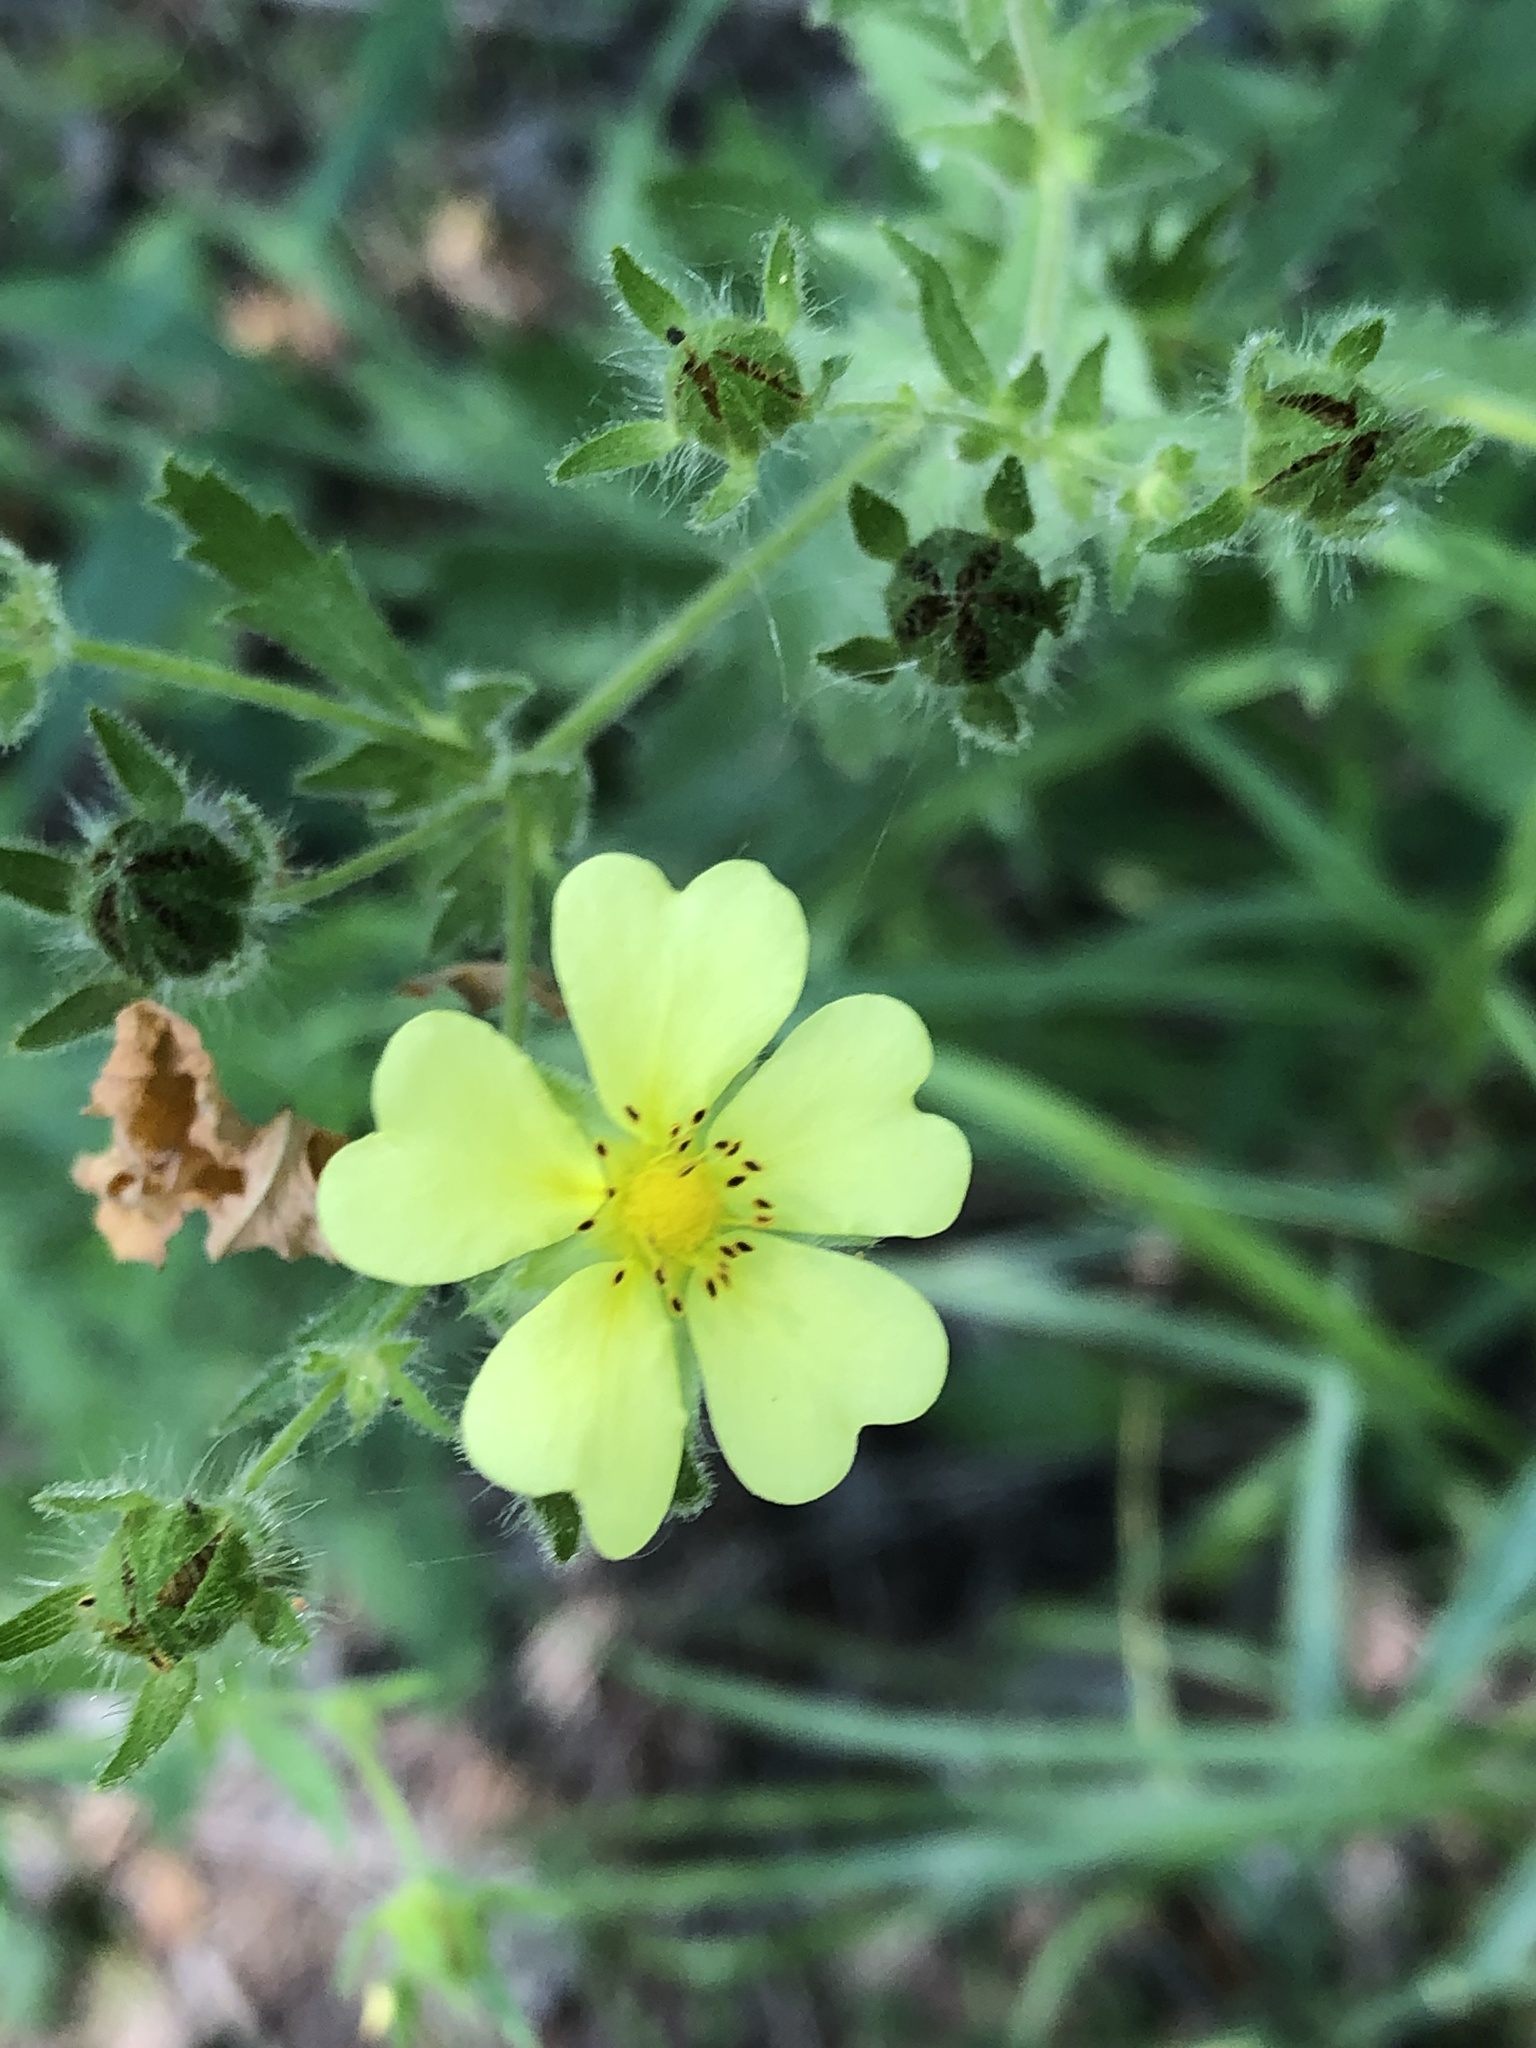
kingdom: Plantae
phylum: Tracheophyta
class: Magnoliopsida
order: Rosales
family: Rosaceae
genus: Potentilla
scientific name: Potentilla recta
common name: Sulphur cinquefoil
